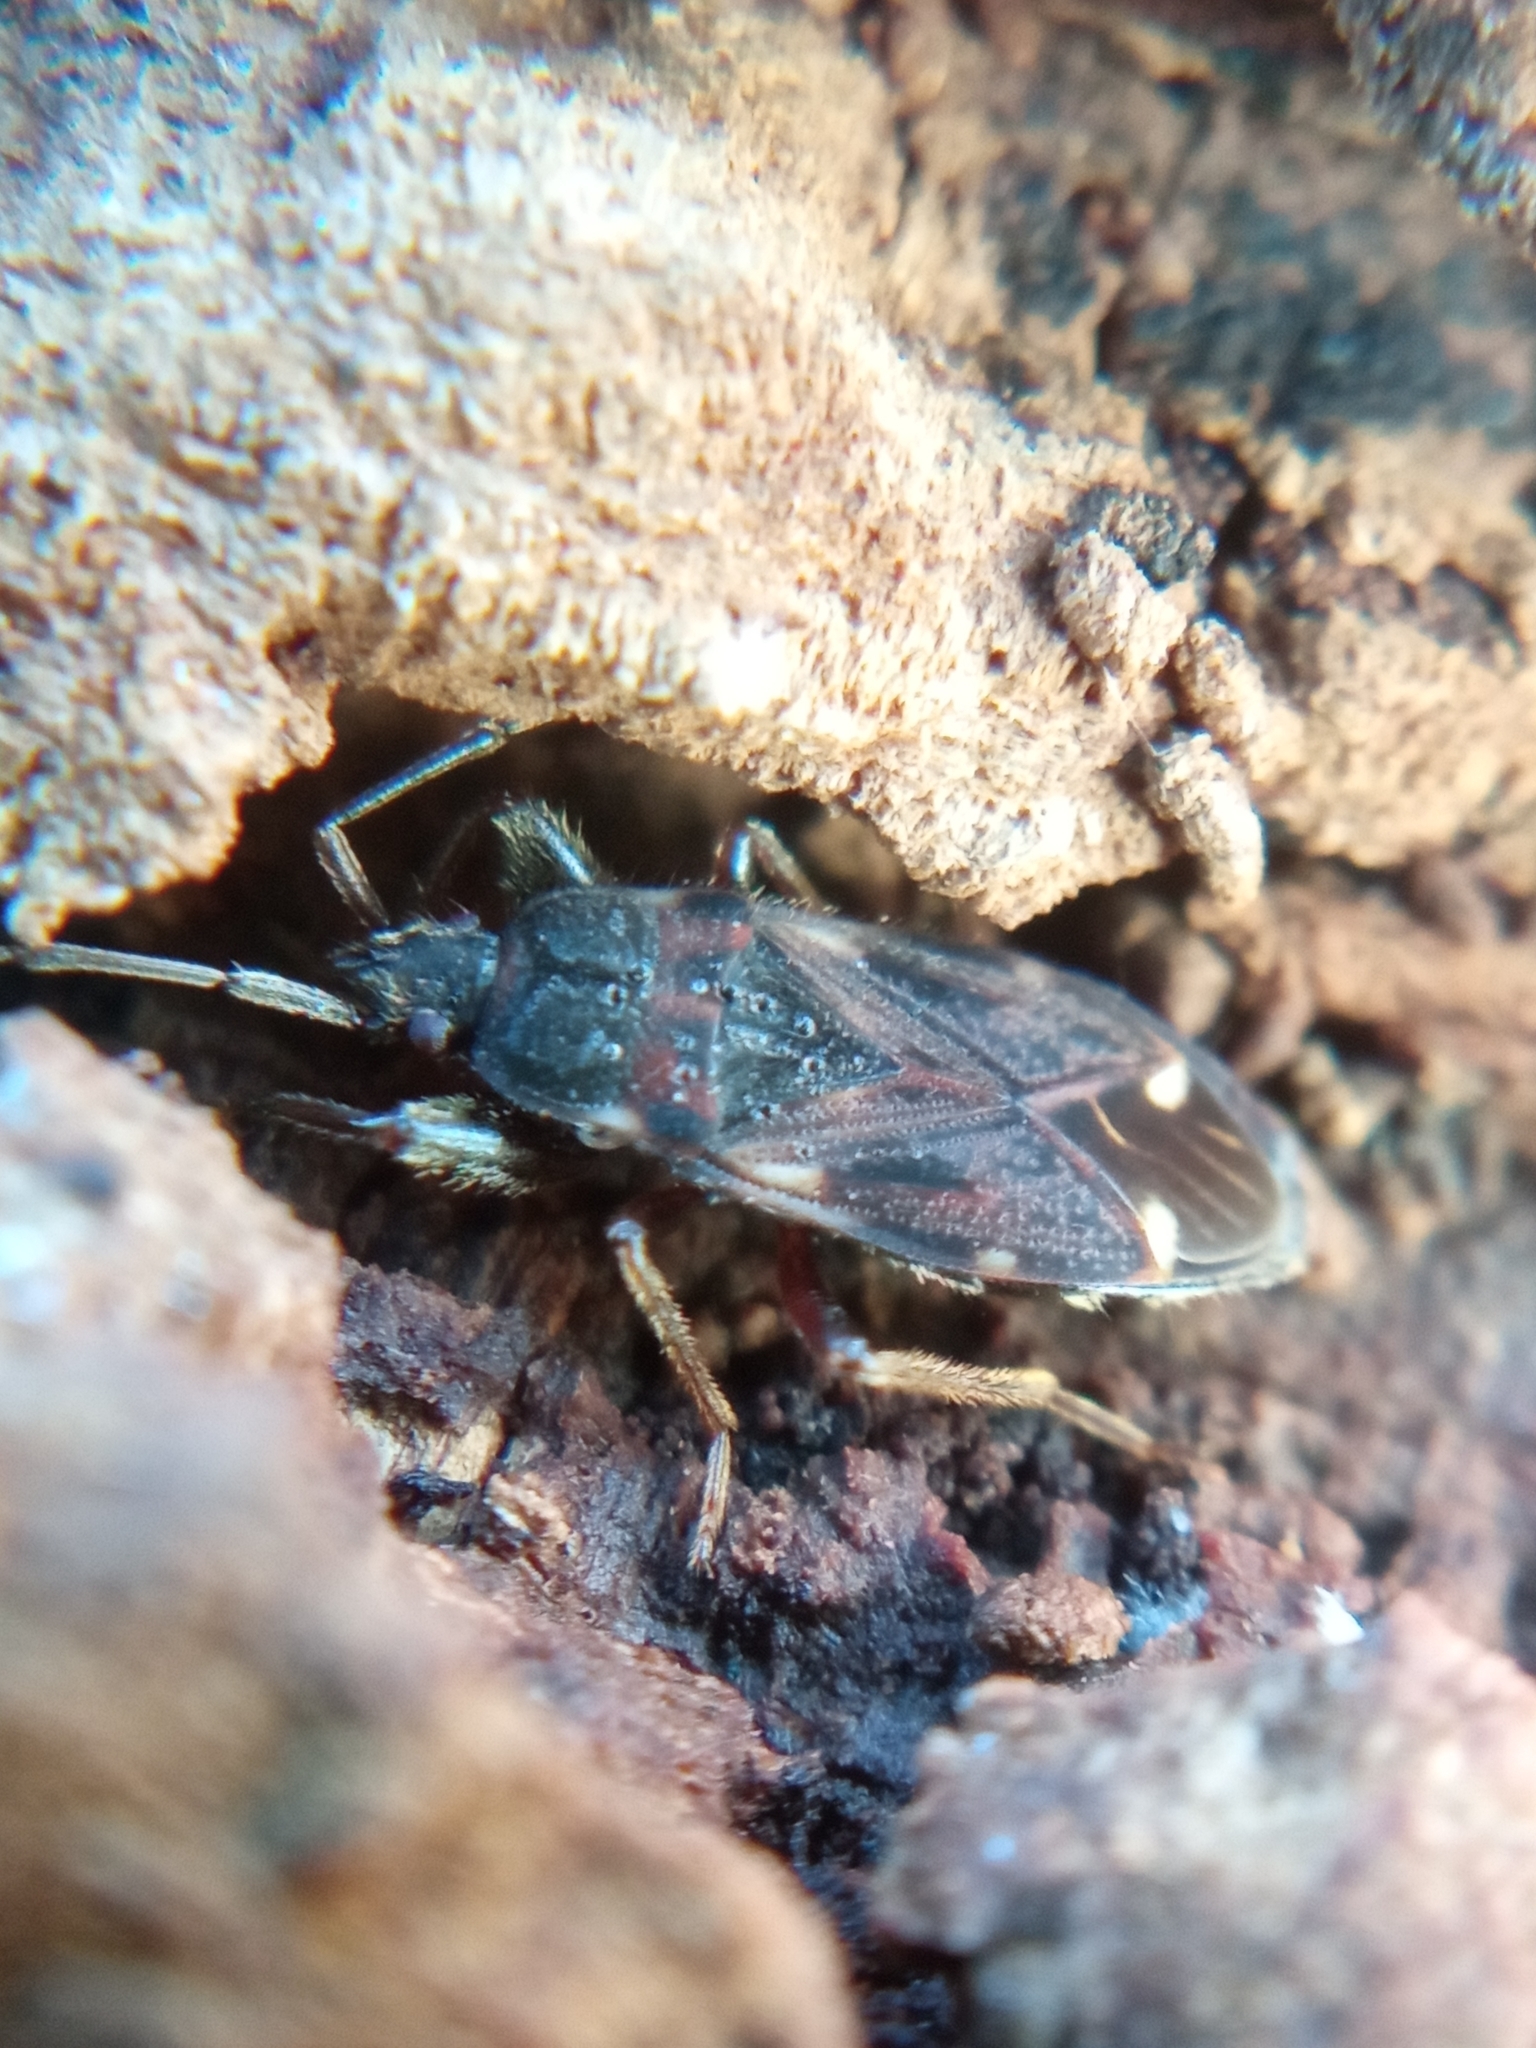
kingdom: Animalia
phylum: Arthropoda
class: Insecta
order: Hemiptera
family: Rhyparochromidae
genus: Eremocoris
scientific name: Eremocoris podagricus
